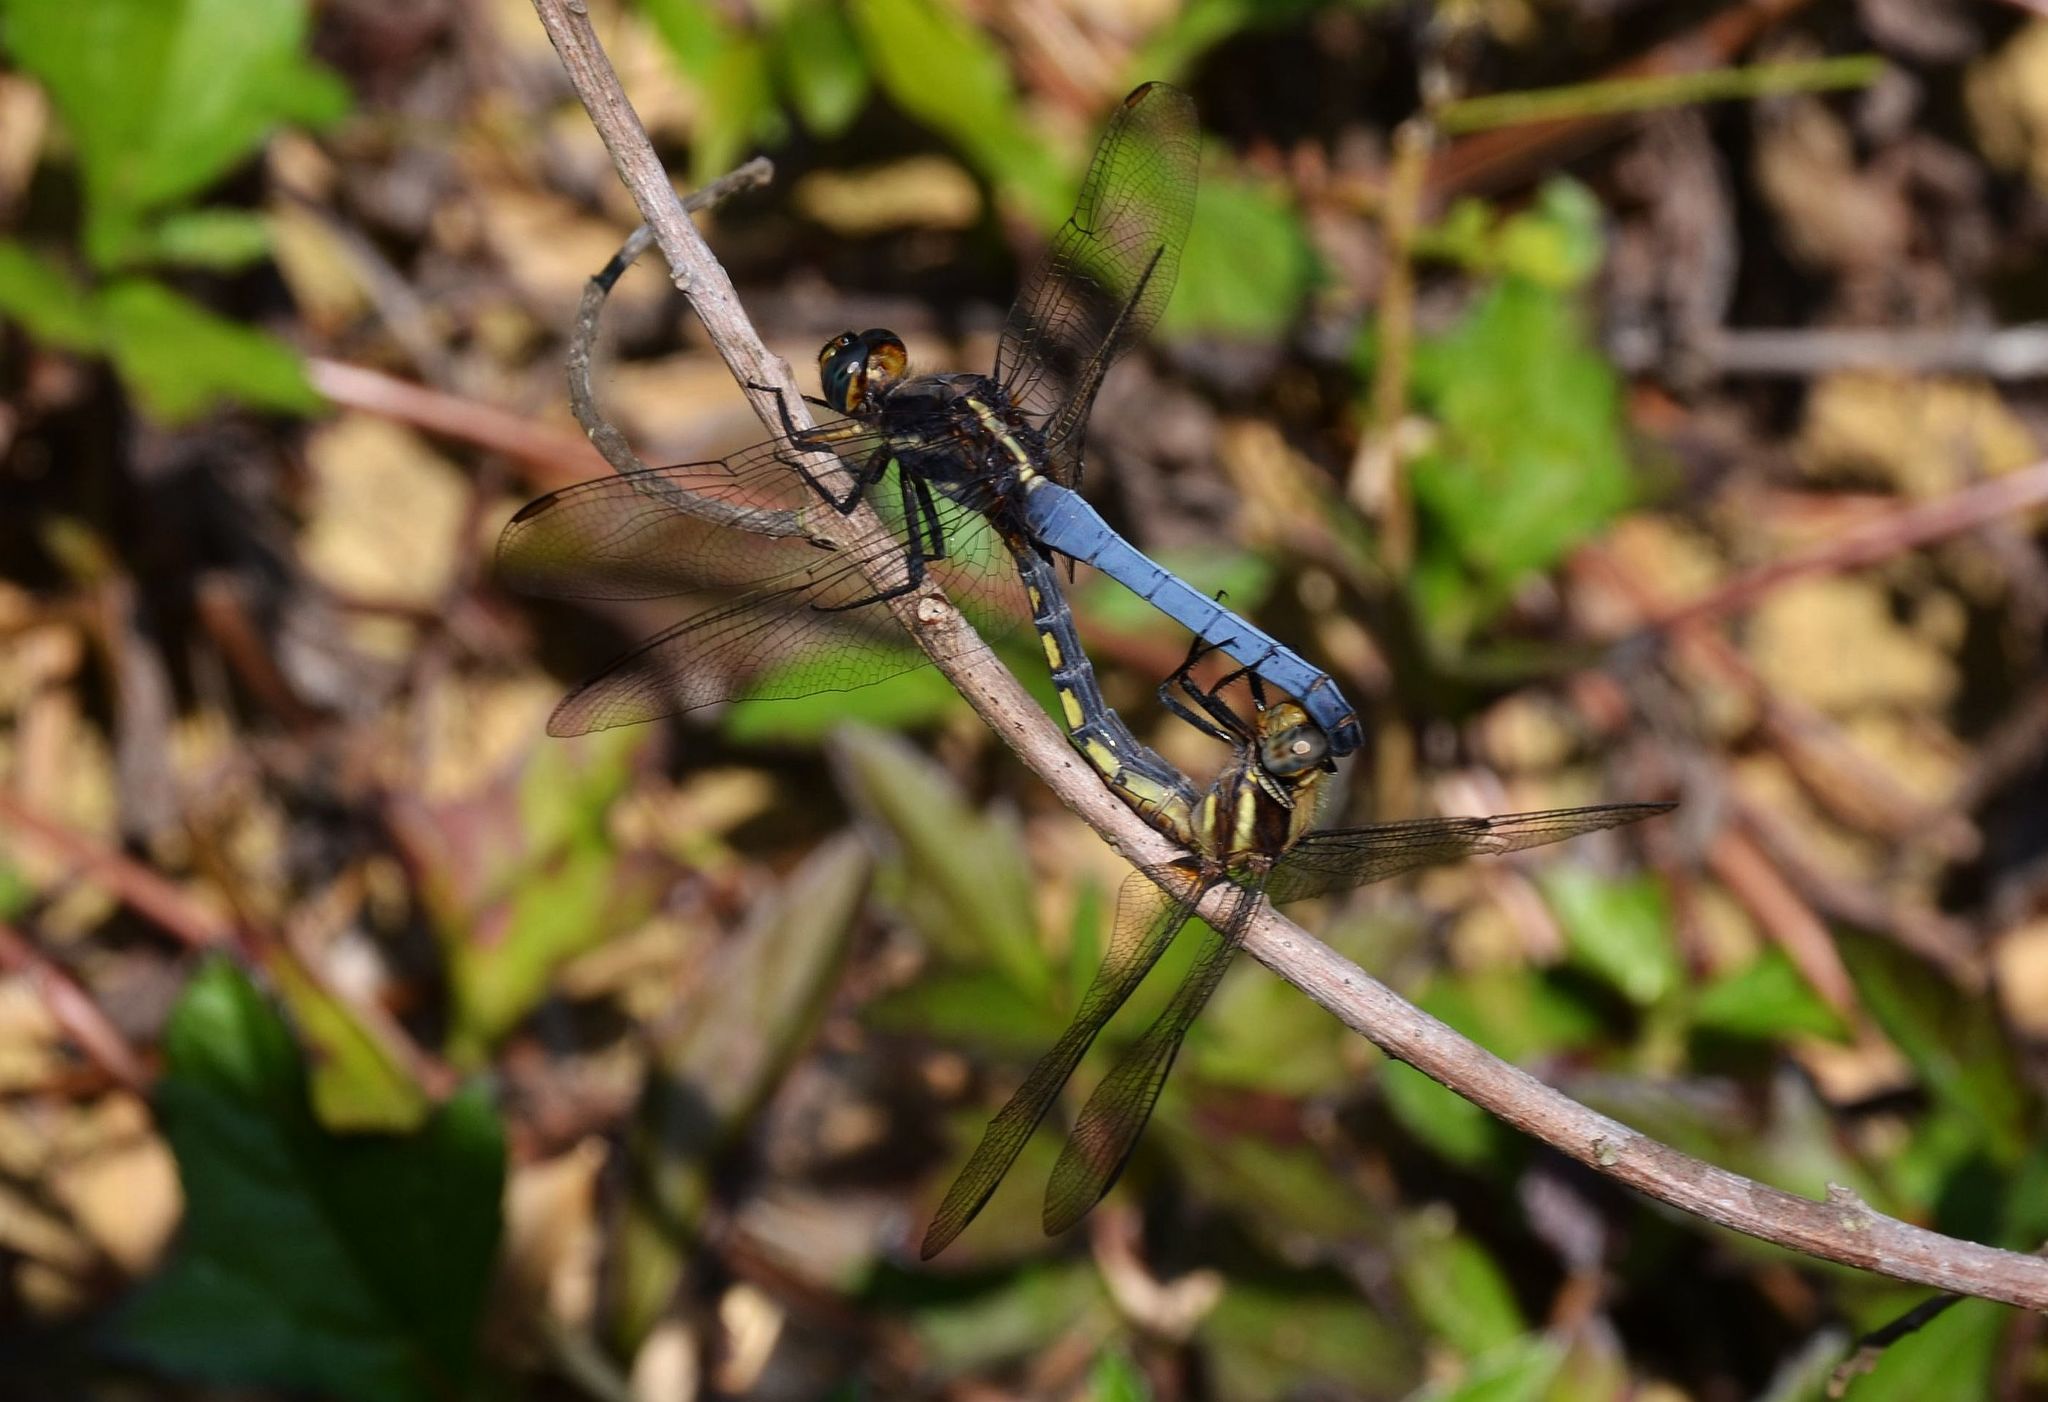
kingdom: Animalia
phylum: Arthropoda
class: Insecta
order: Odonata
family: Libellulidae
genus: Orthetrum
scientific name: Orthetrum glaucum
